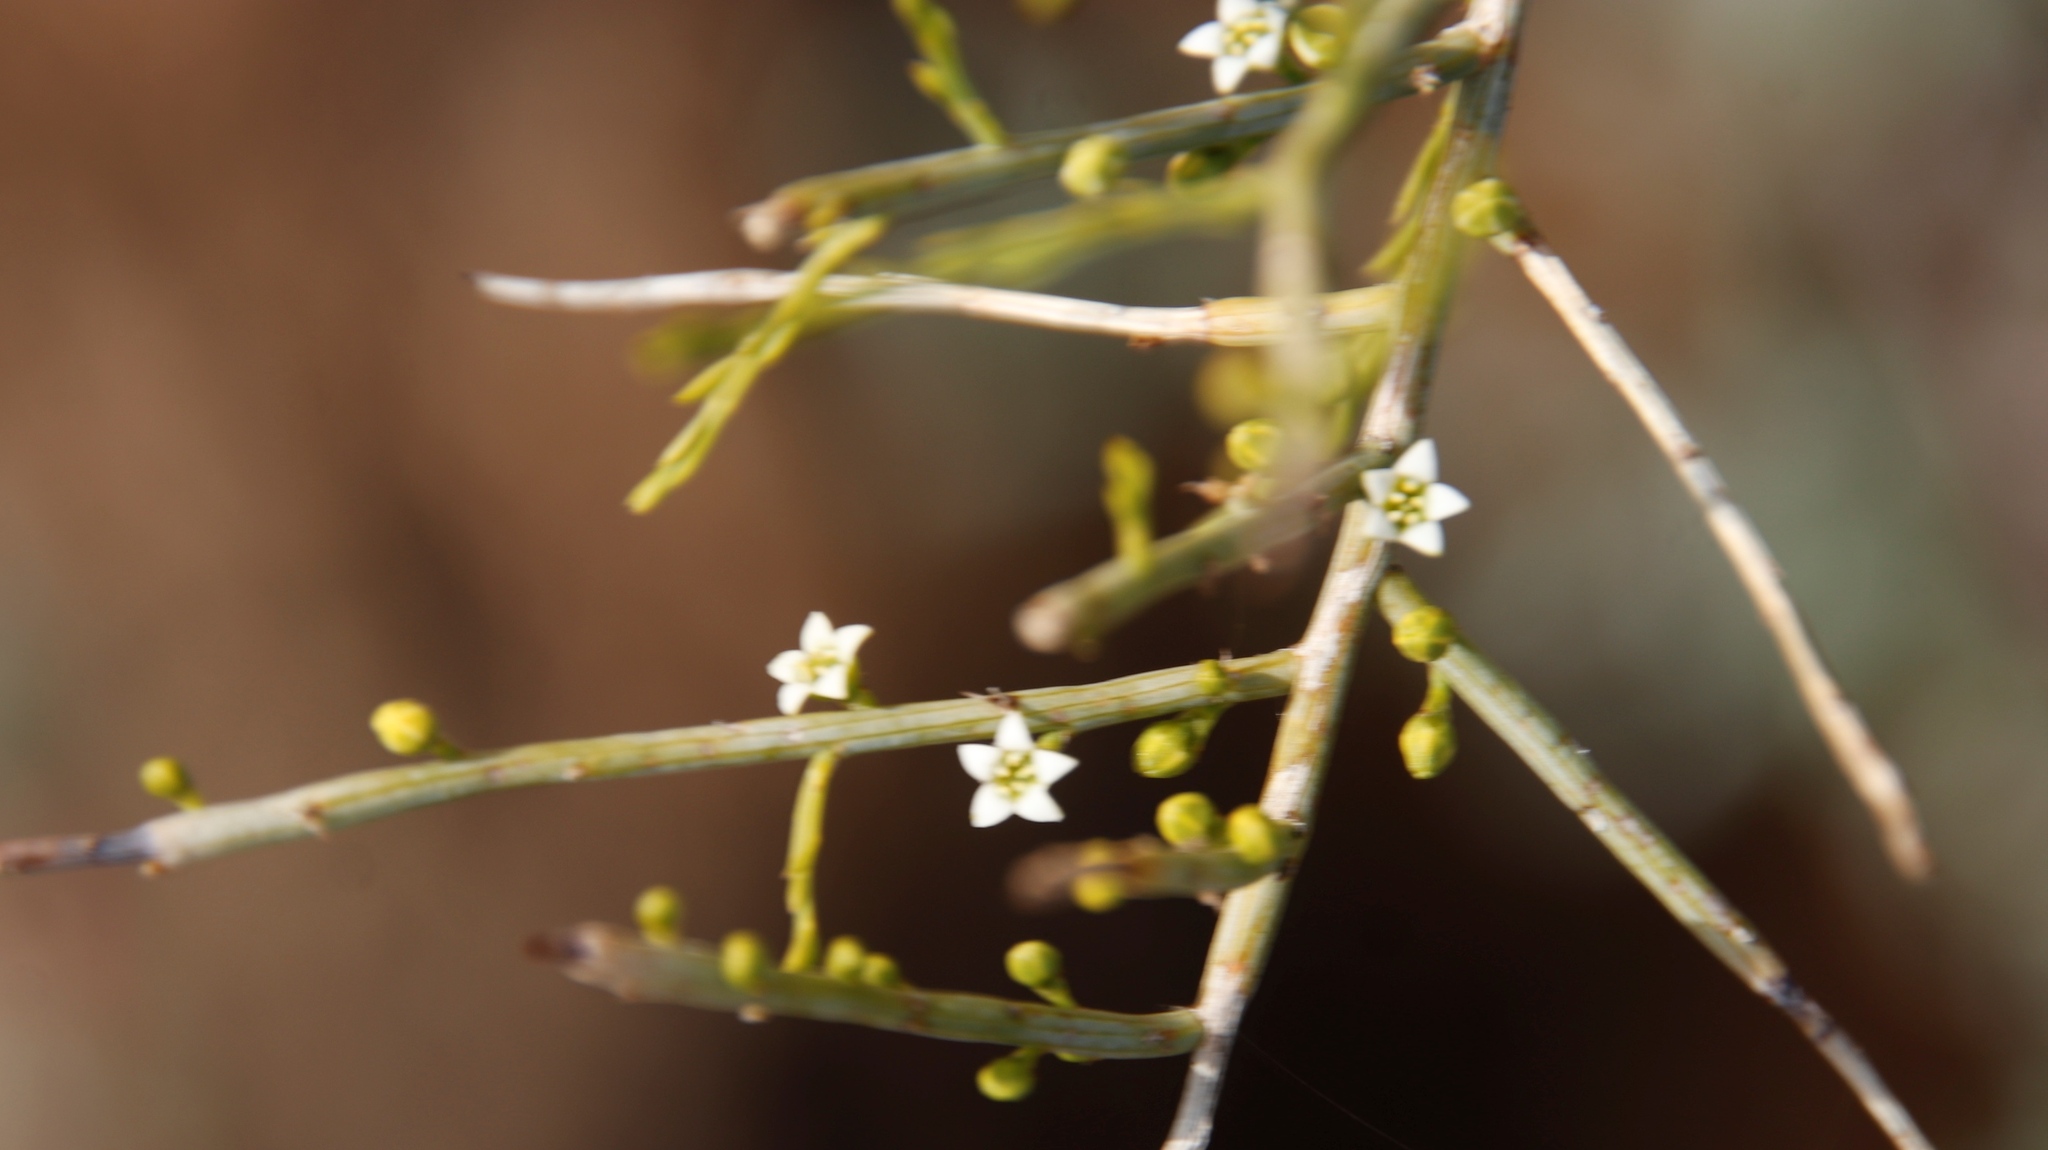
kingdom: Plantae
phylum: Tracheophyta
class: Magnoliopsida
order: Santalales
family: Thesiaceae
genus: Lacomucinaea
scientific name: Lacomucinaea lineata
